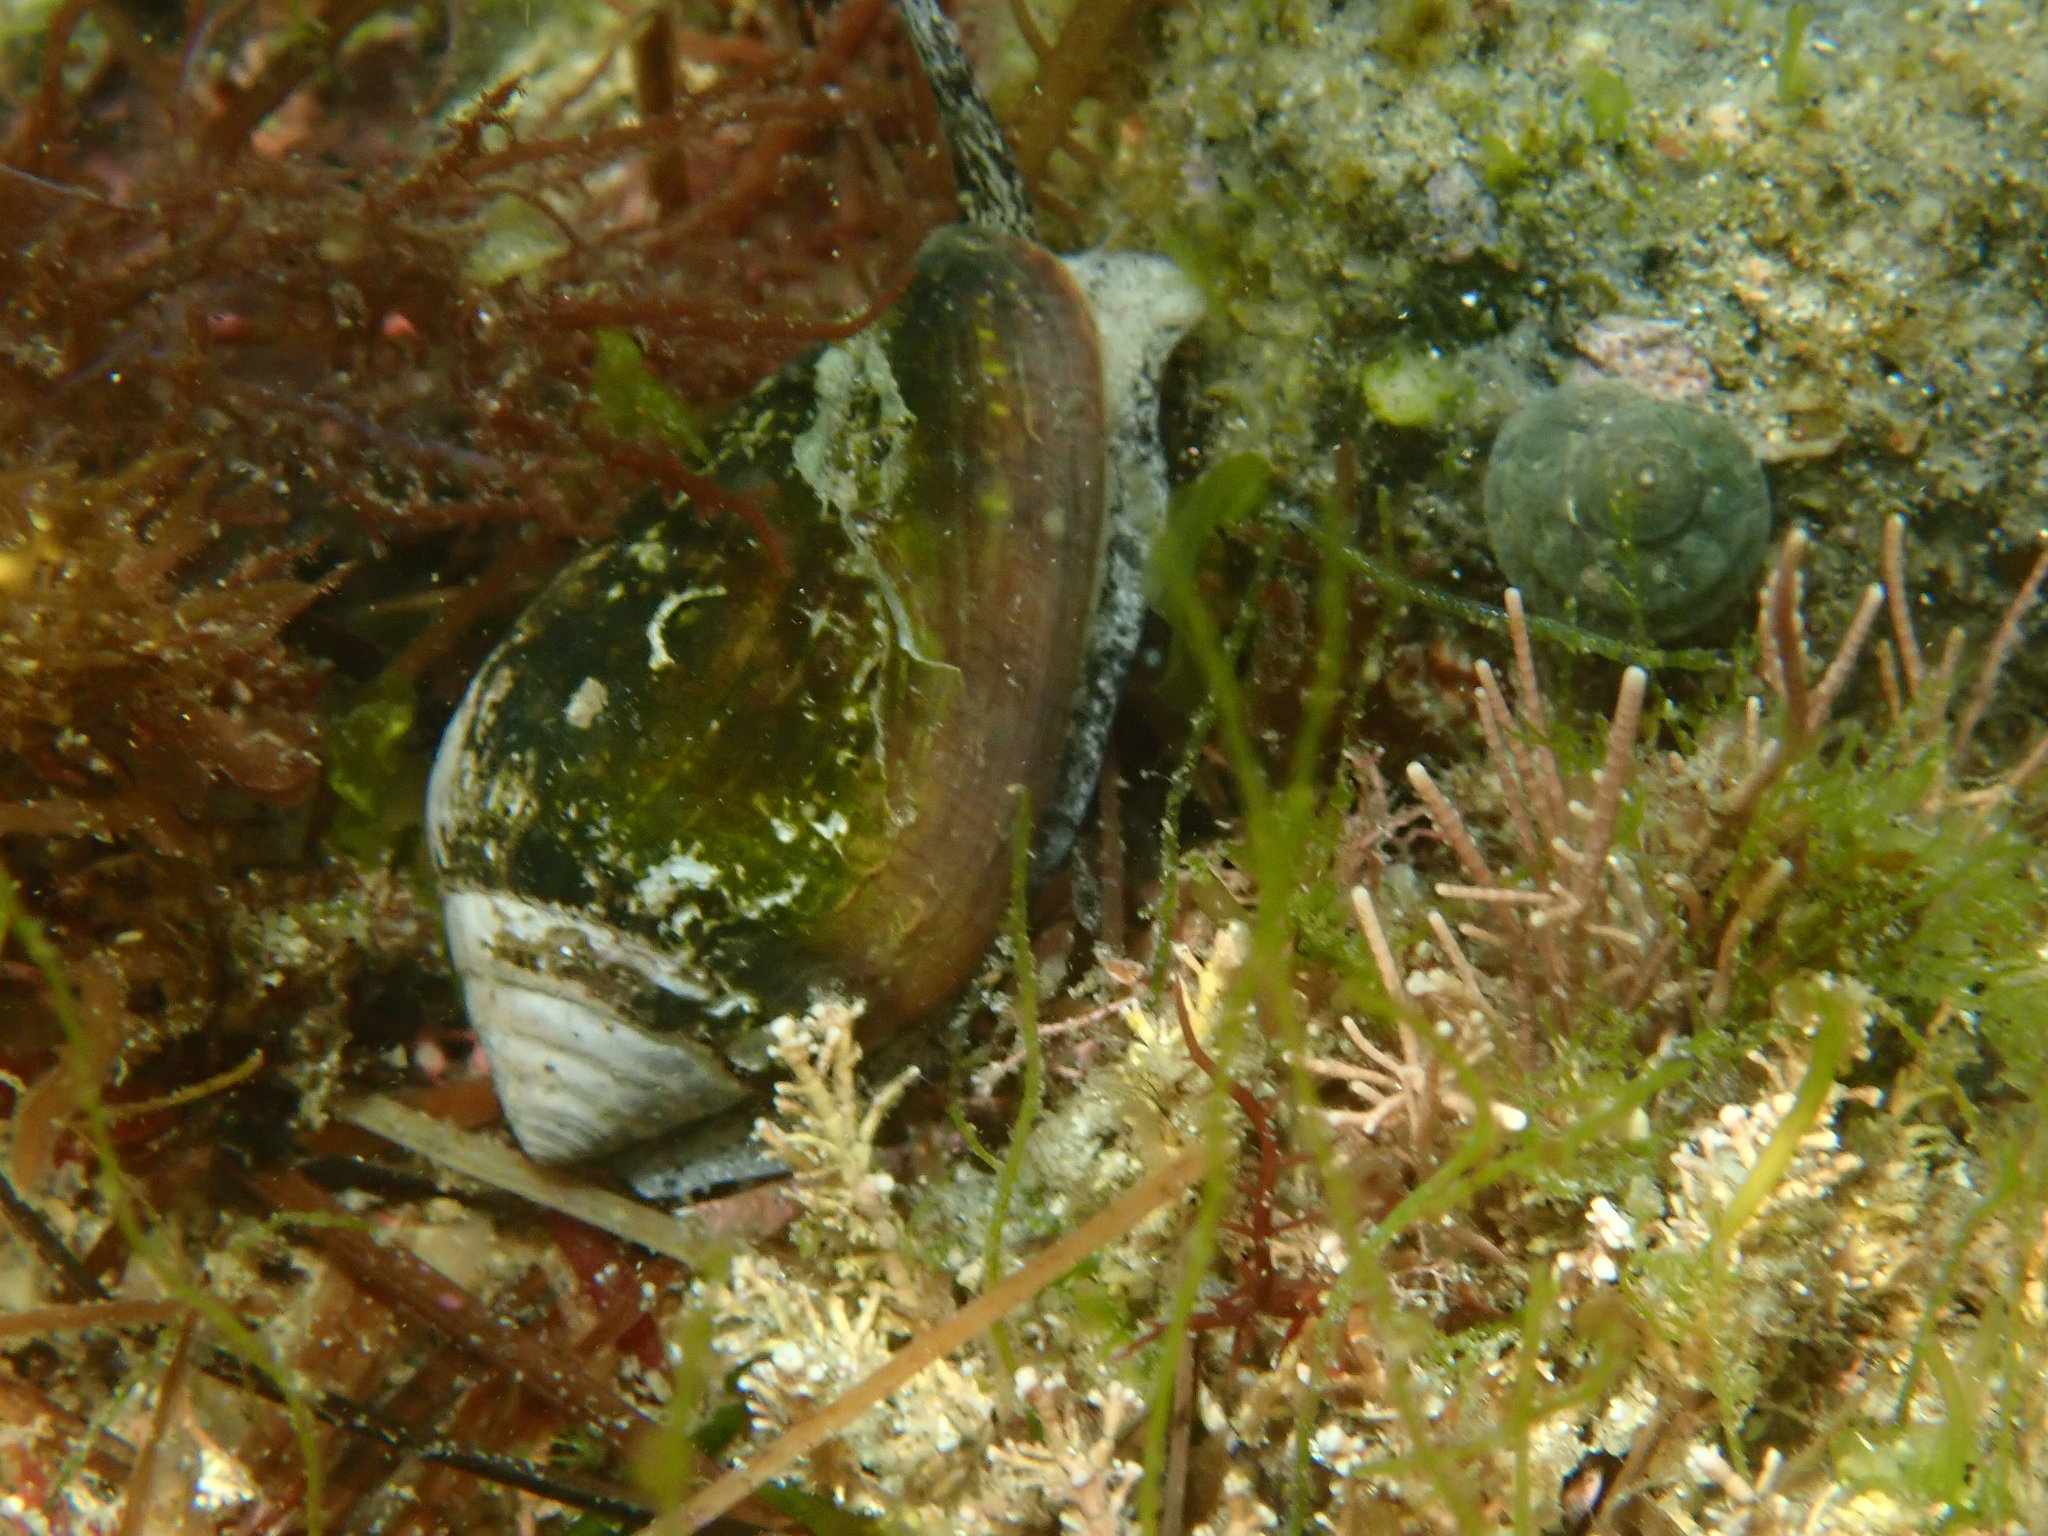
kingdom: Animalia
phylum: Mollusca
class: Gastropoda
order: Neogastropoda
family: Conidae
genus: Californiconus
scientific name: Californiconus californicus
